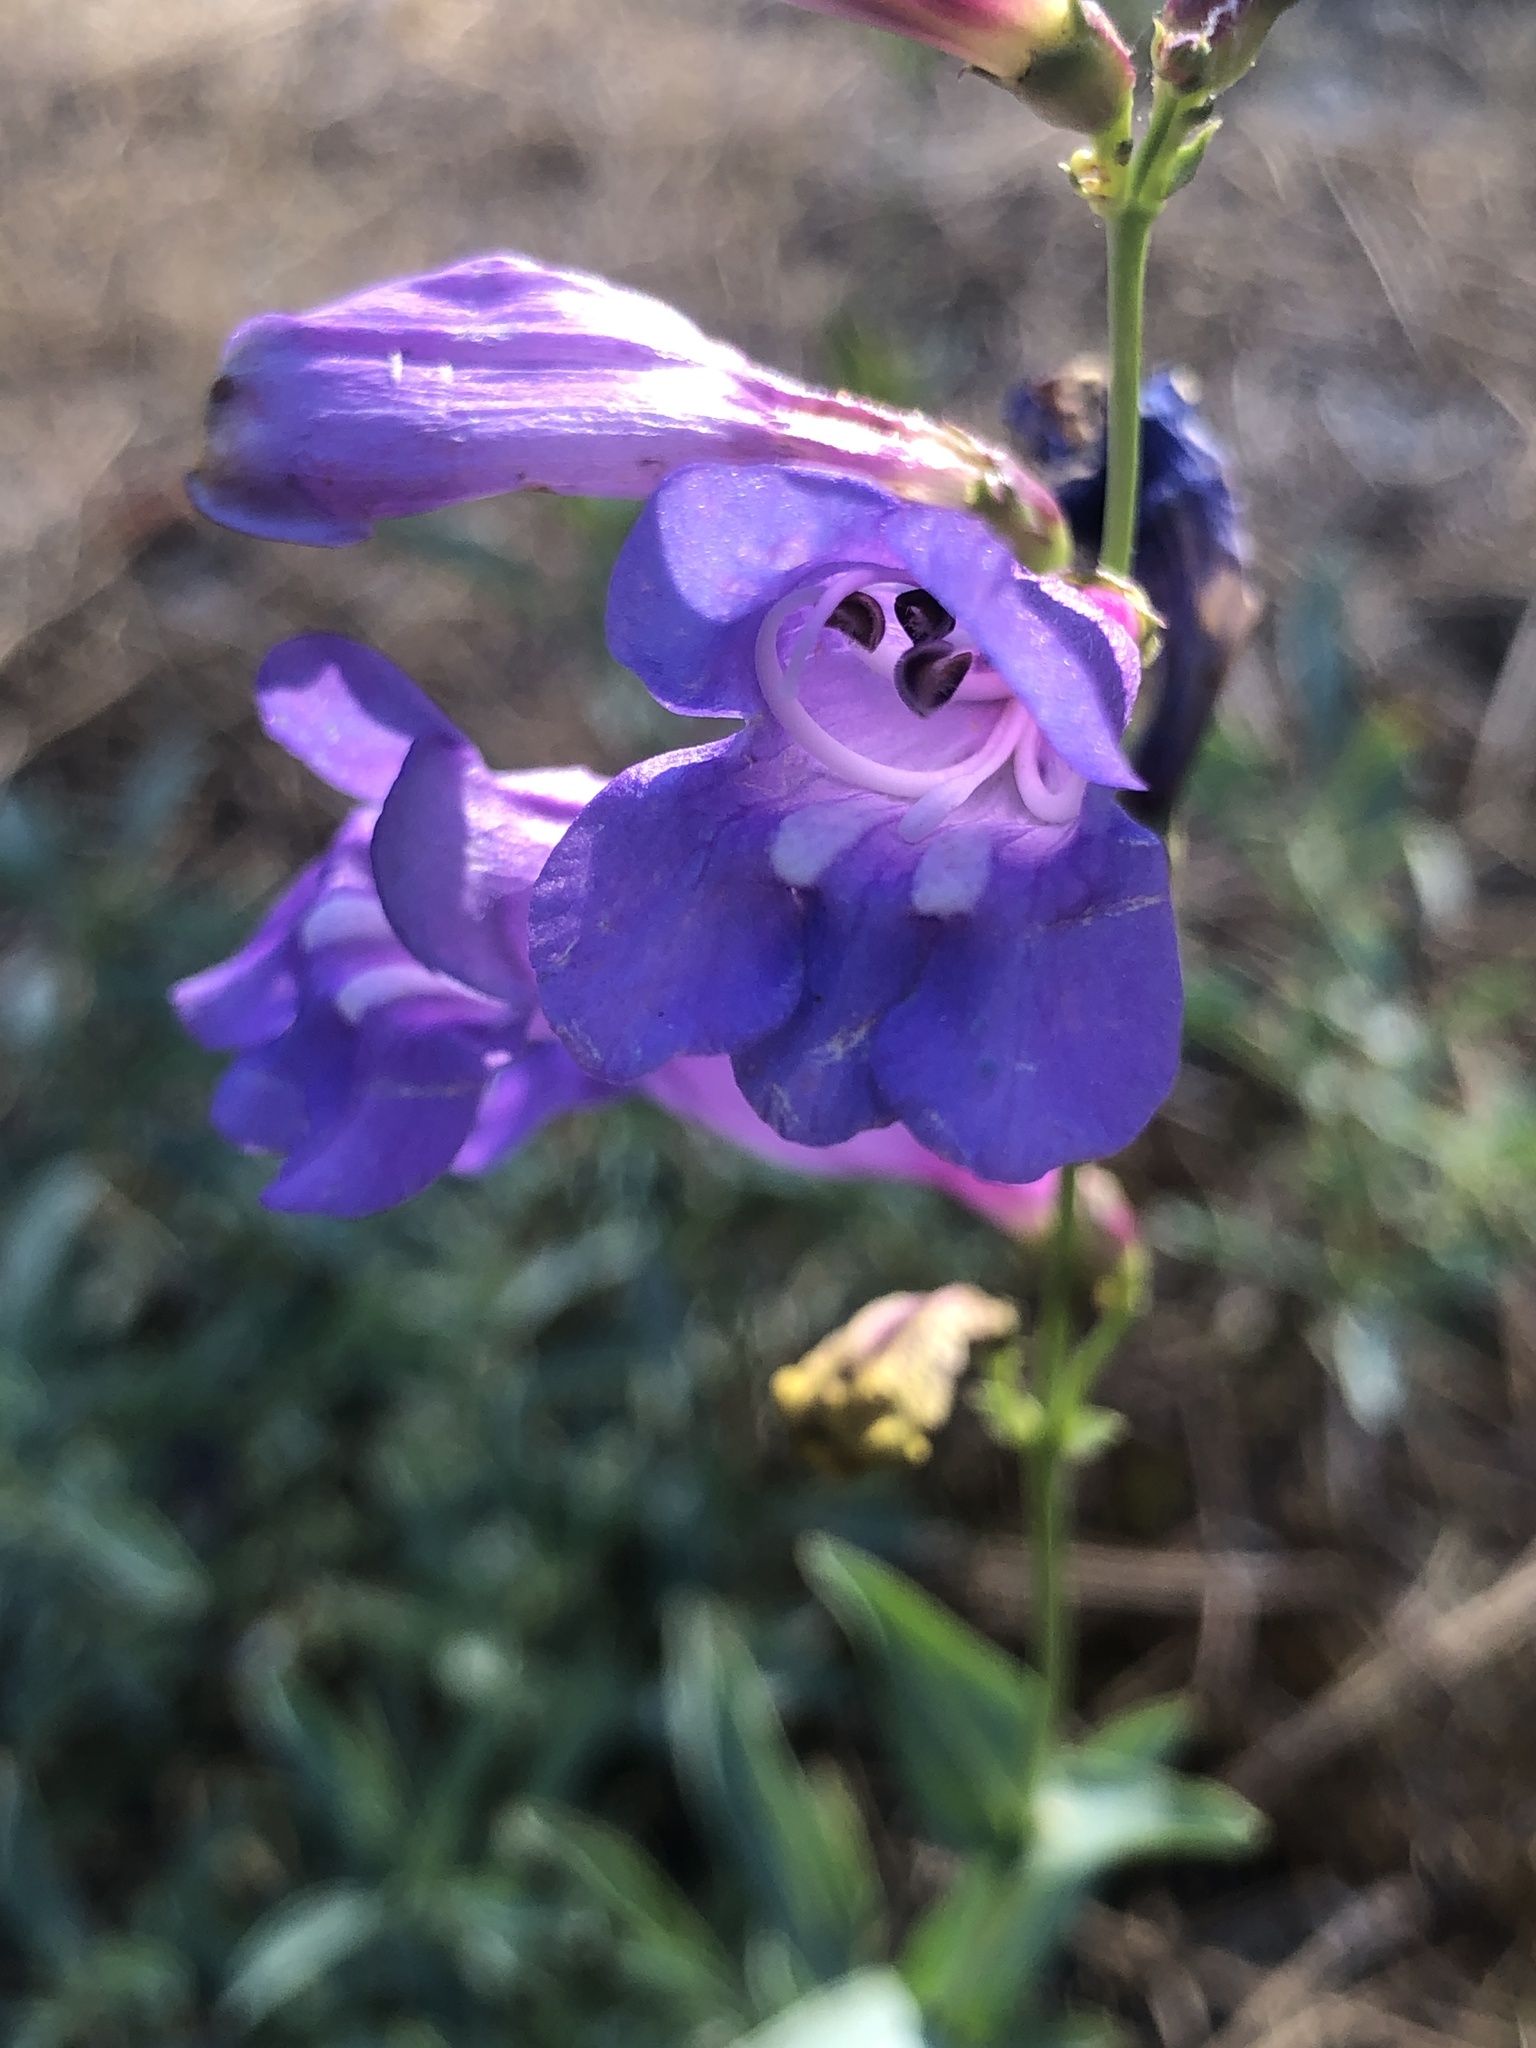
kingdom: Plantae
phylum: Tracheophyta
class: Magnoliopsida
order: Lamiales
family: Plantaginaceae
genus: Penstemon
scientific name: Penstemon azureus
